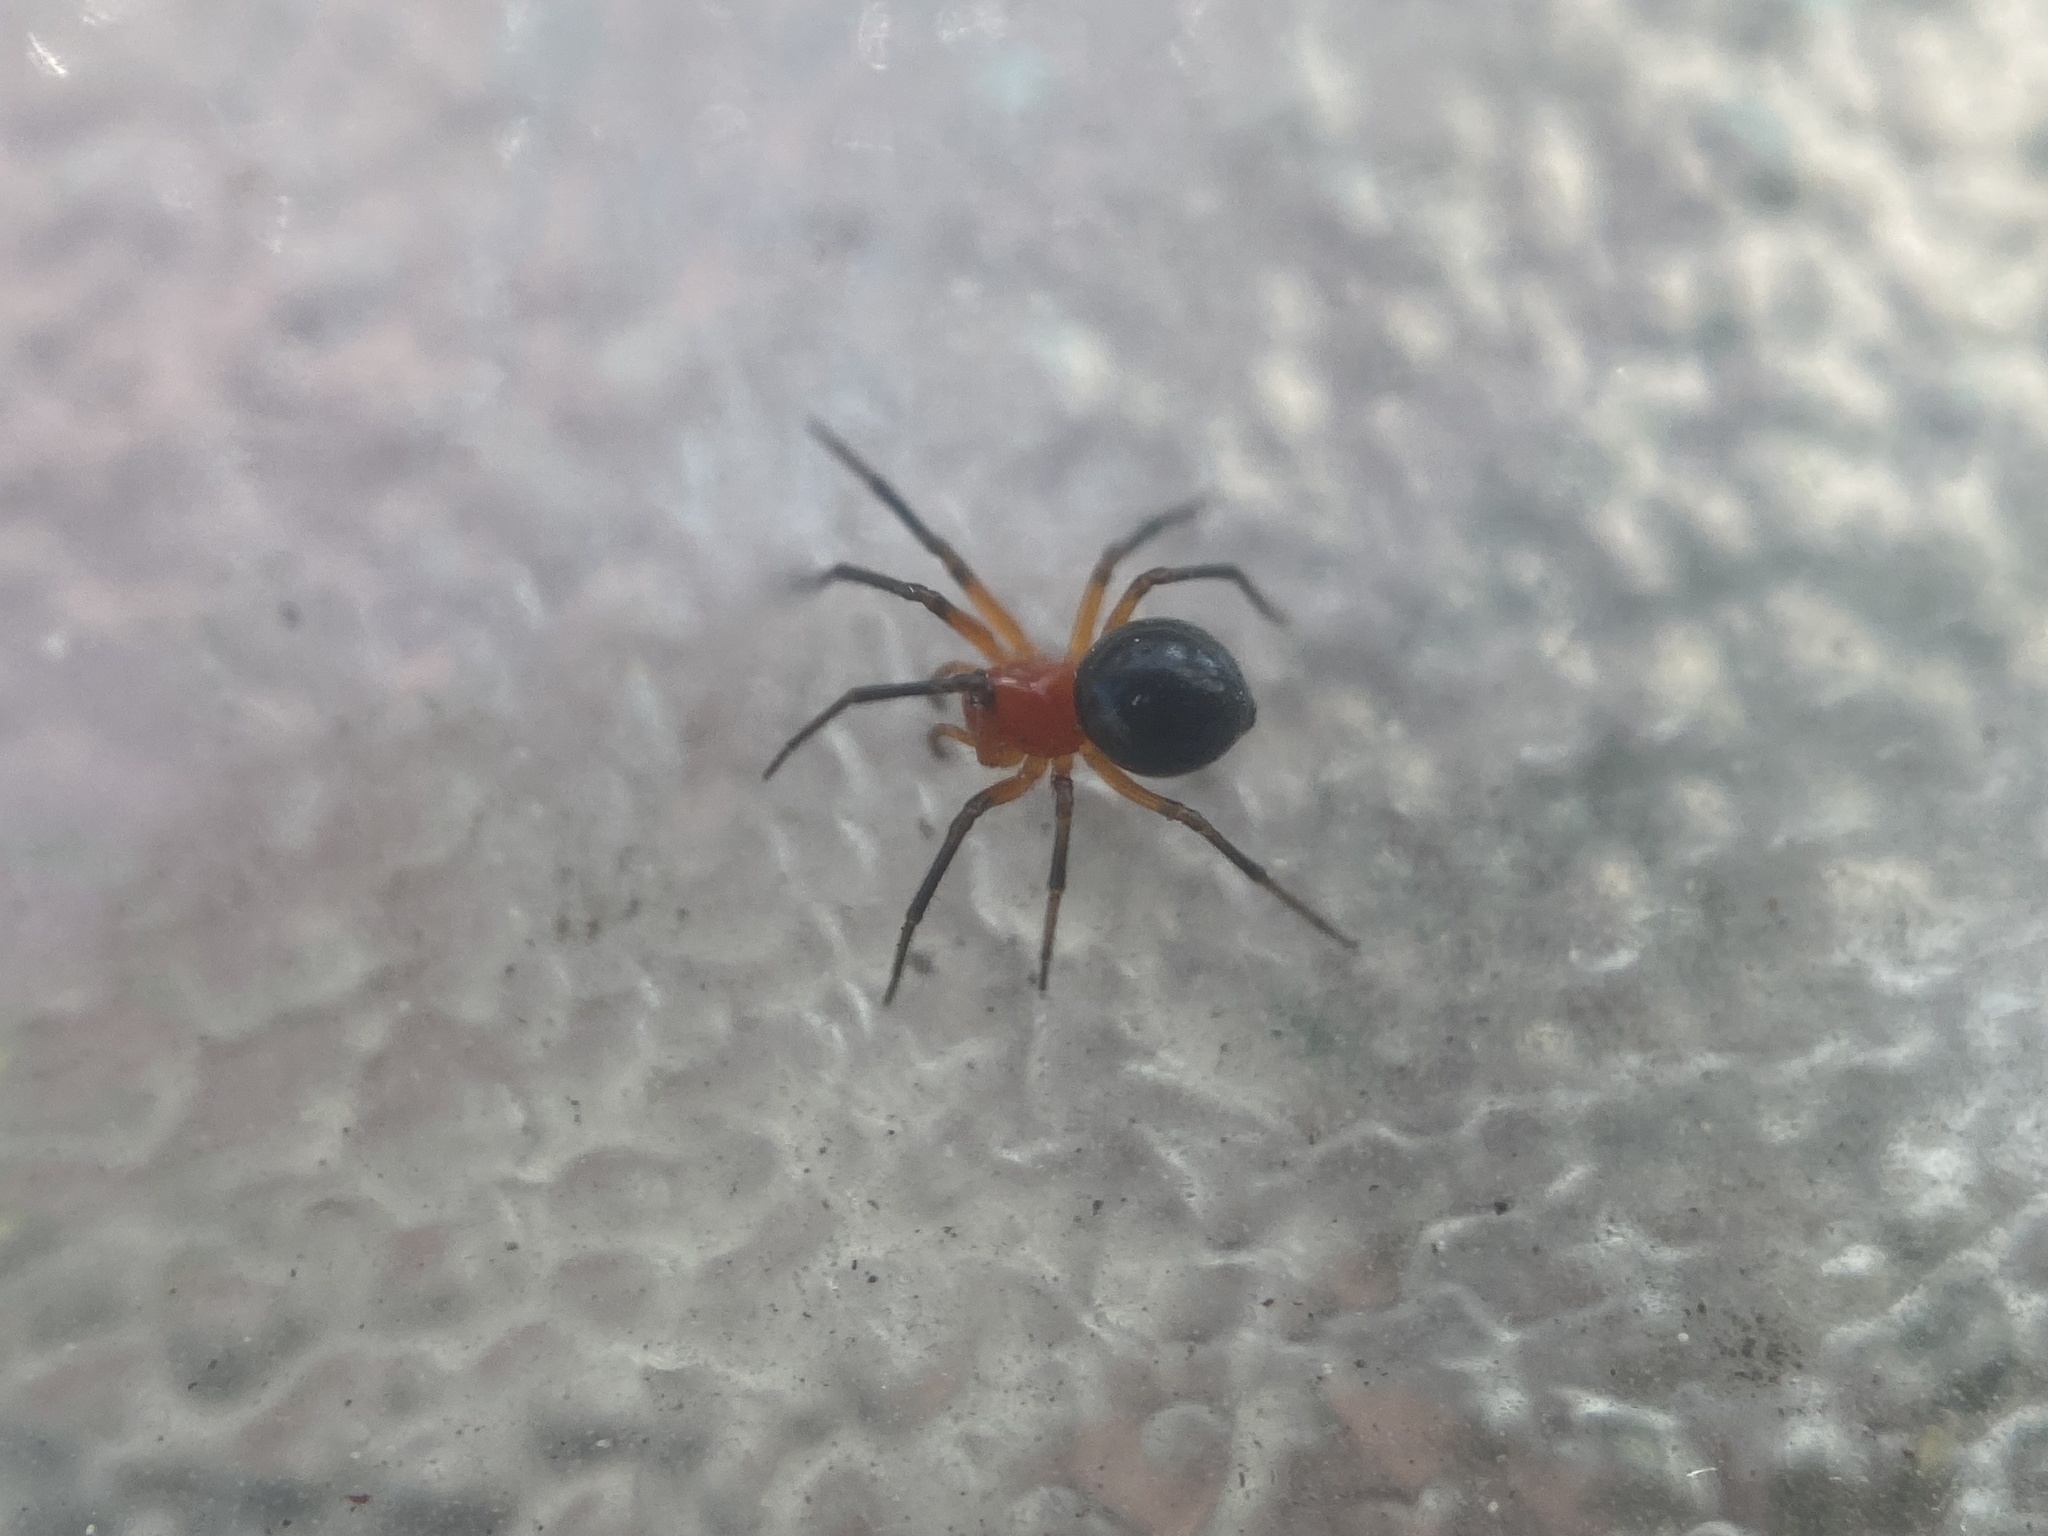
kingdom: Animalia
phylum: Arthropoda
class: Arachnida
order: Araneae
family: Linyphiidae
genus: Hypselistes
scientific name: Hypselistes florens
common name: Peatland sheetweb weaver
